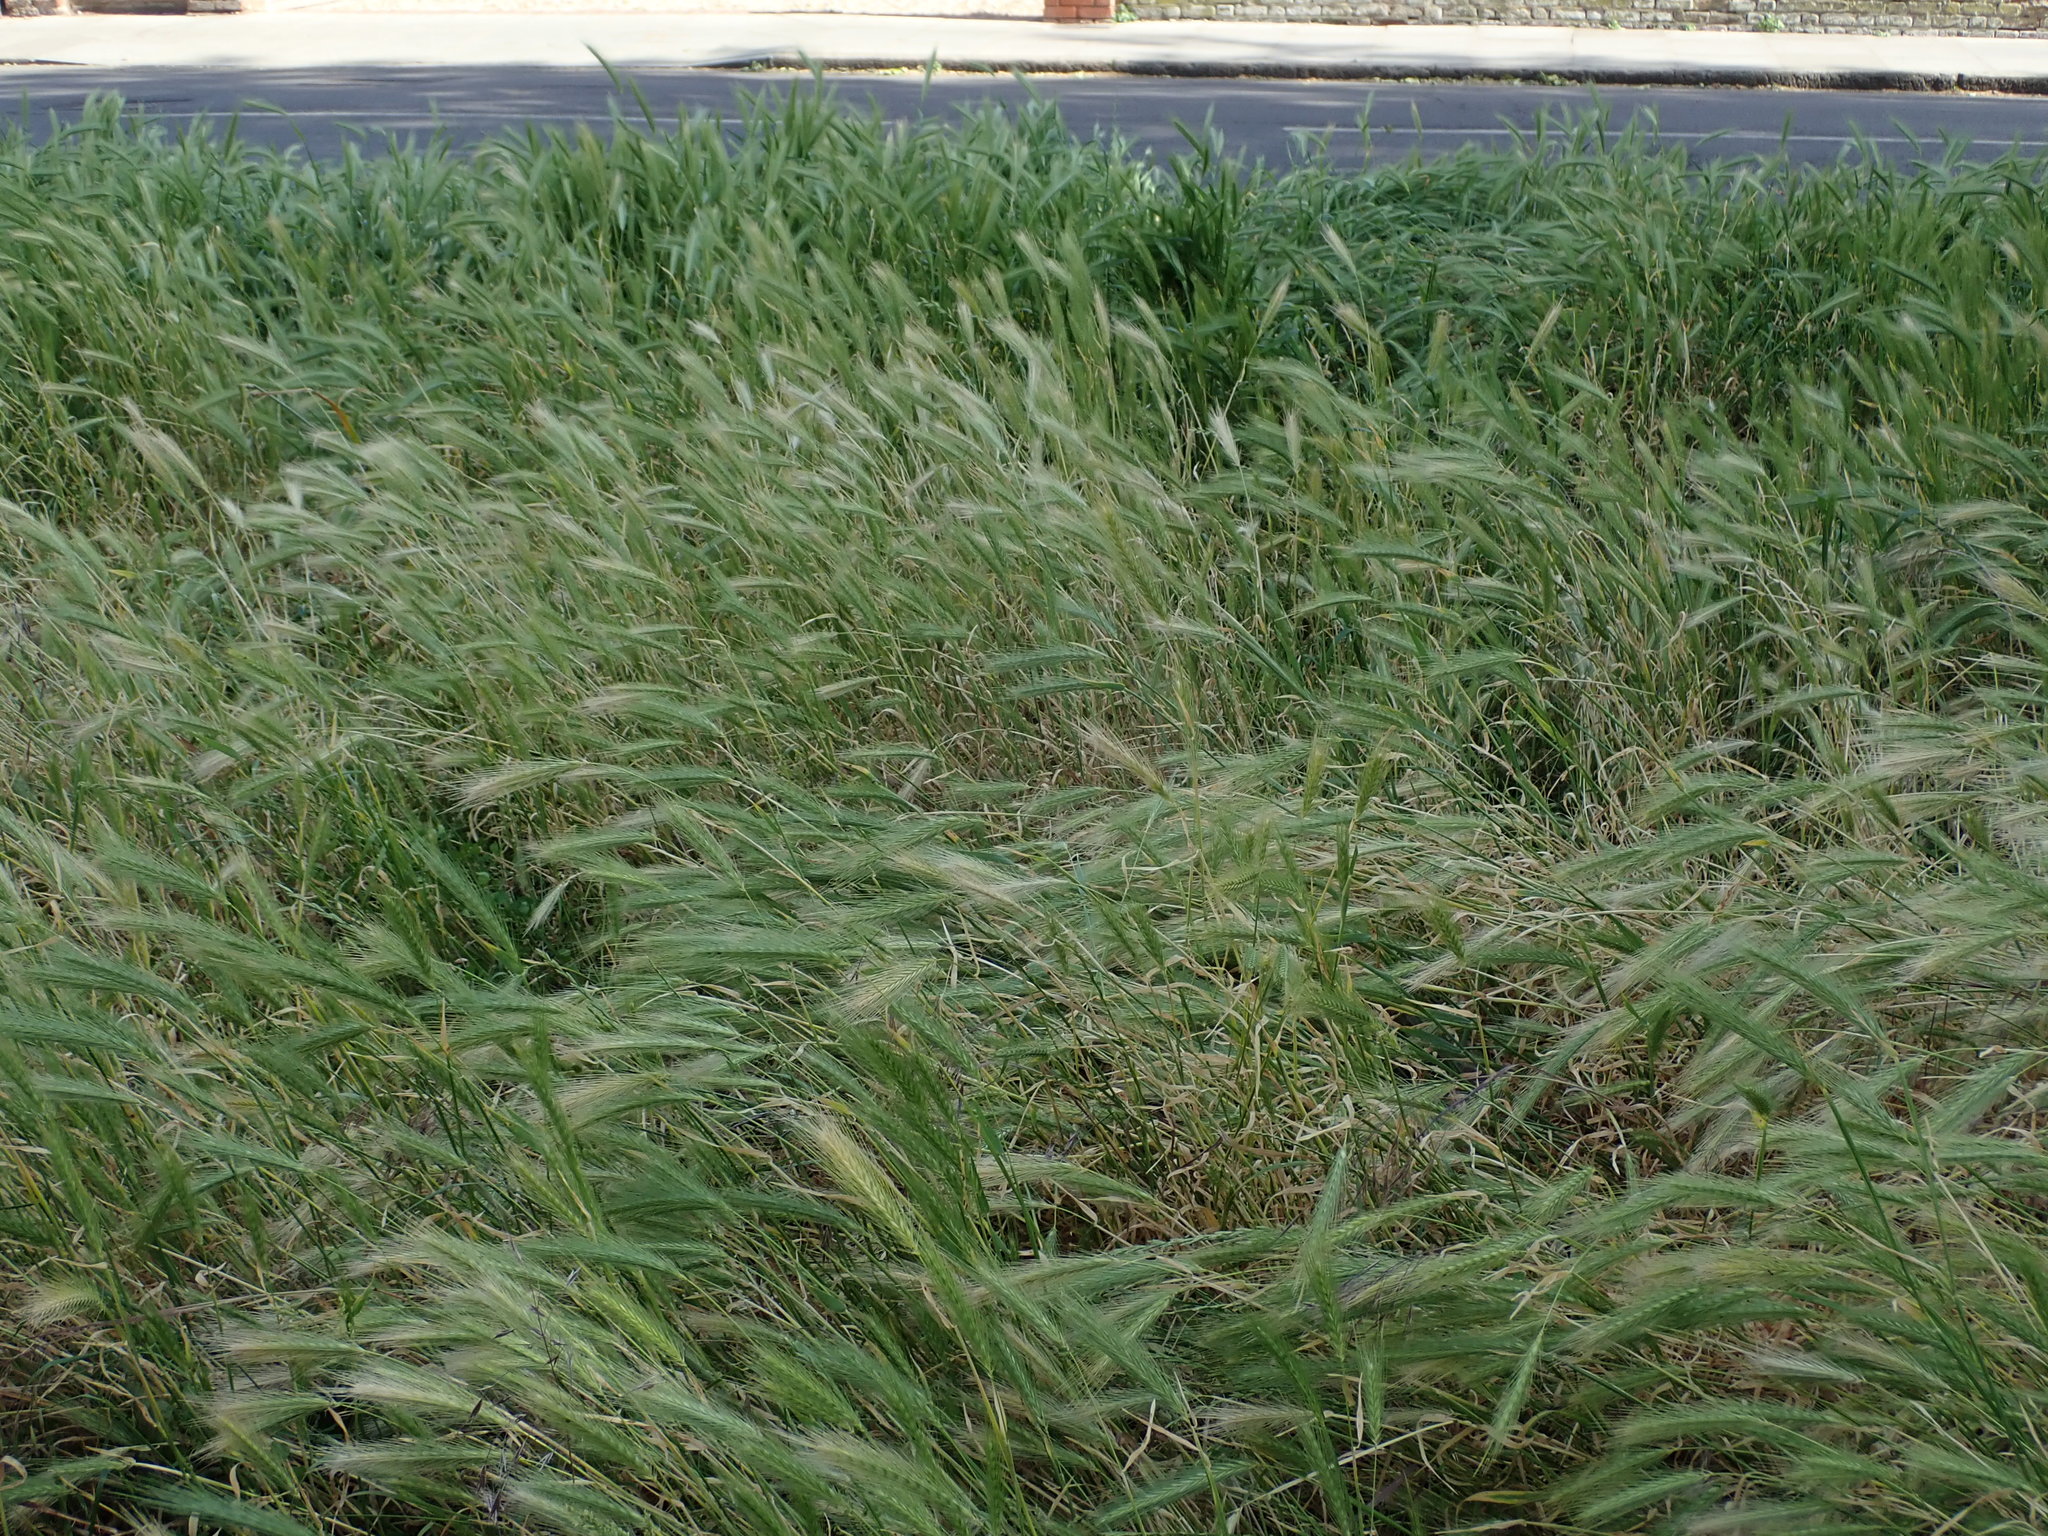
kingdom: Plantae
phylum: Tracheophyta
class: Liliopsida
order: Poales
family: Poaceae
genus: Hordeum
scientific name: Hordeum murinum
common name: Wall barley
